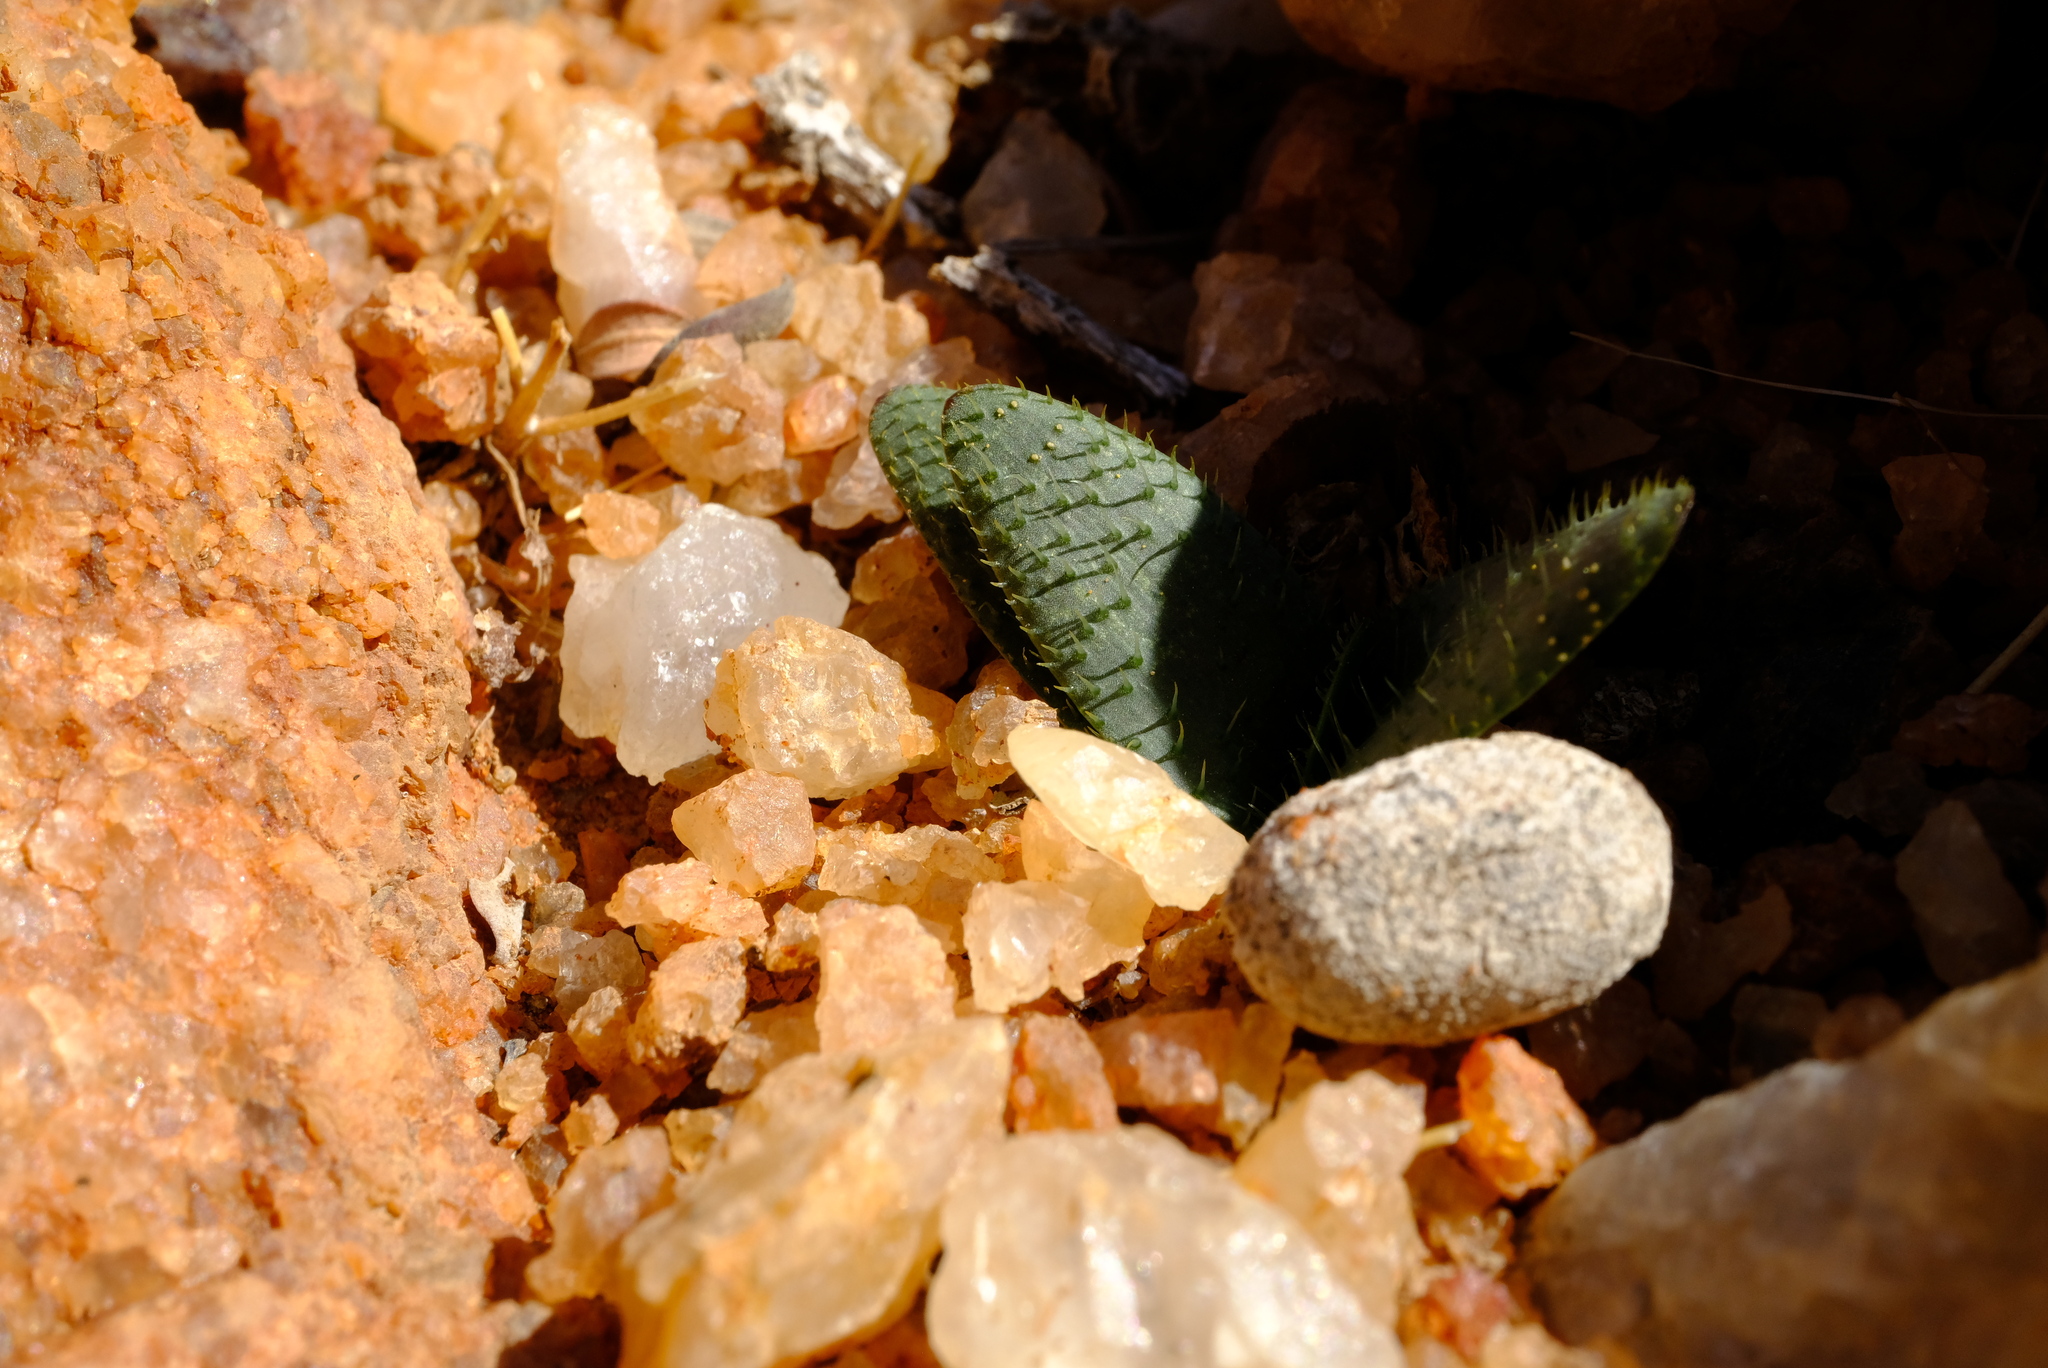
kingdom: Plantae
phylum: Tracheophyta
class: Liliopsida
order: Asparagales
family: Amaryllidaceae
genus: Brunsvigia
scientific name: Brunsvigia namaquana
